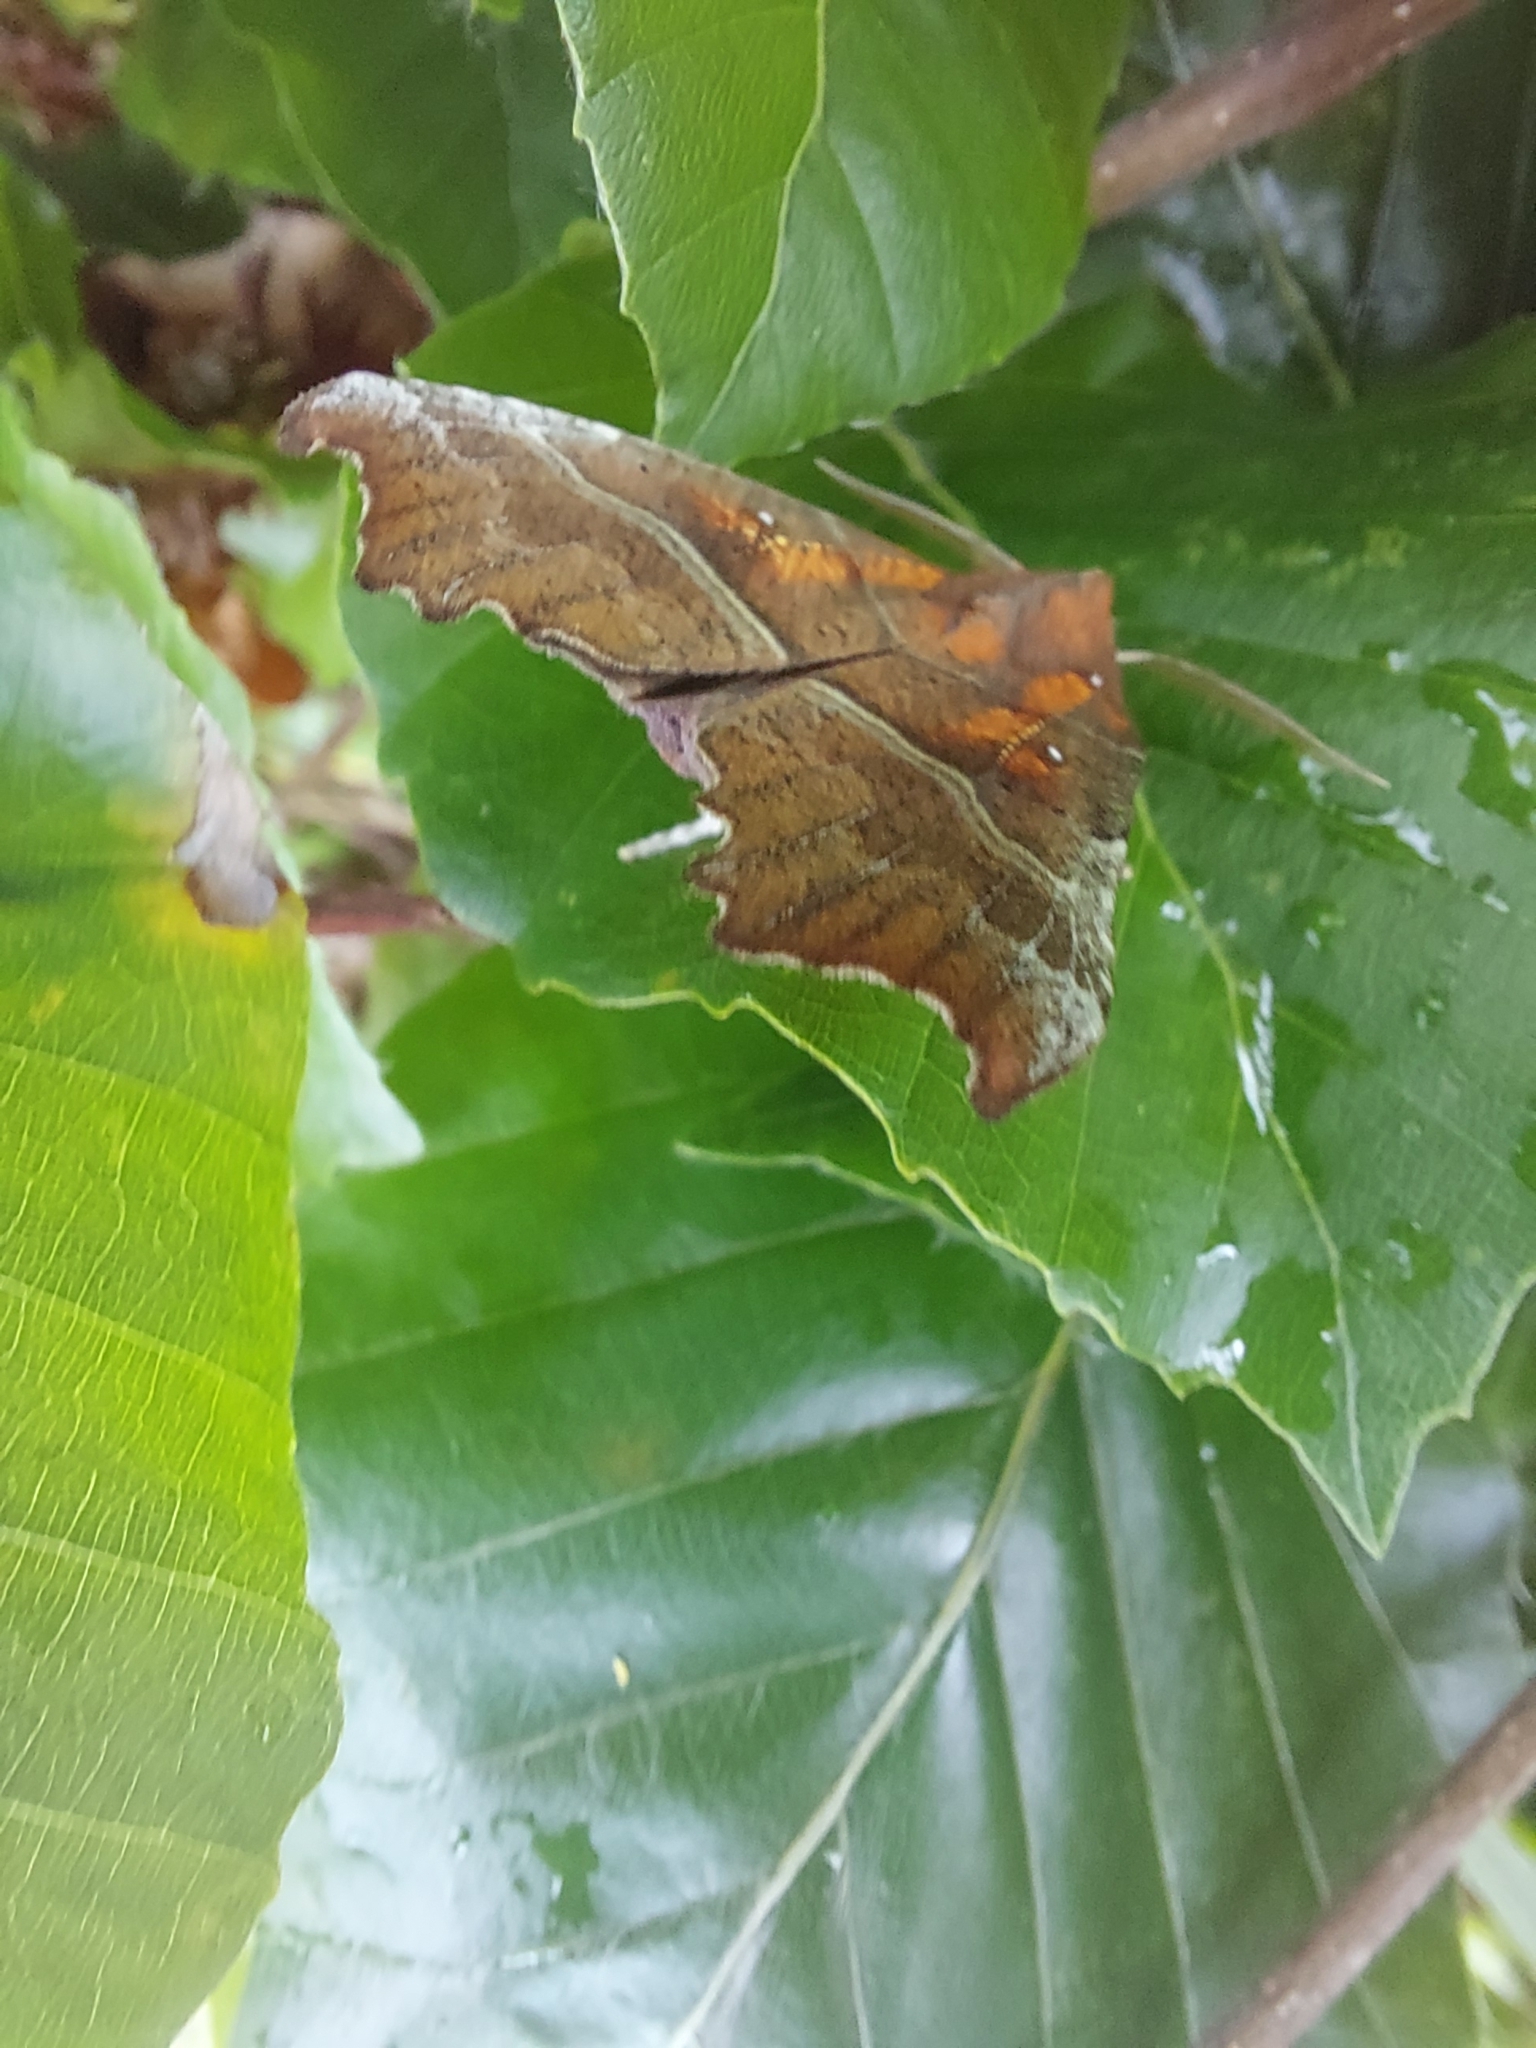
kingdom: Animalia
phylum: Arthropoda
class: Insecta
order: Lepidoptera
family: Erebidae
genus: Scoliopteryx
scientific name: Scoliopteryx libatrix
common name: Herald
